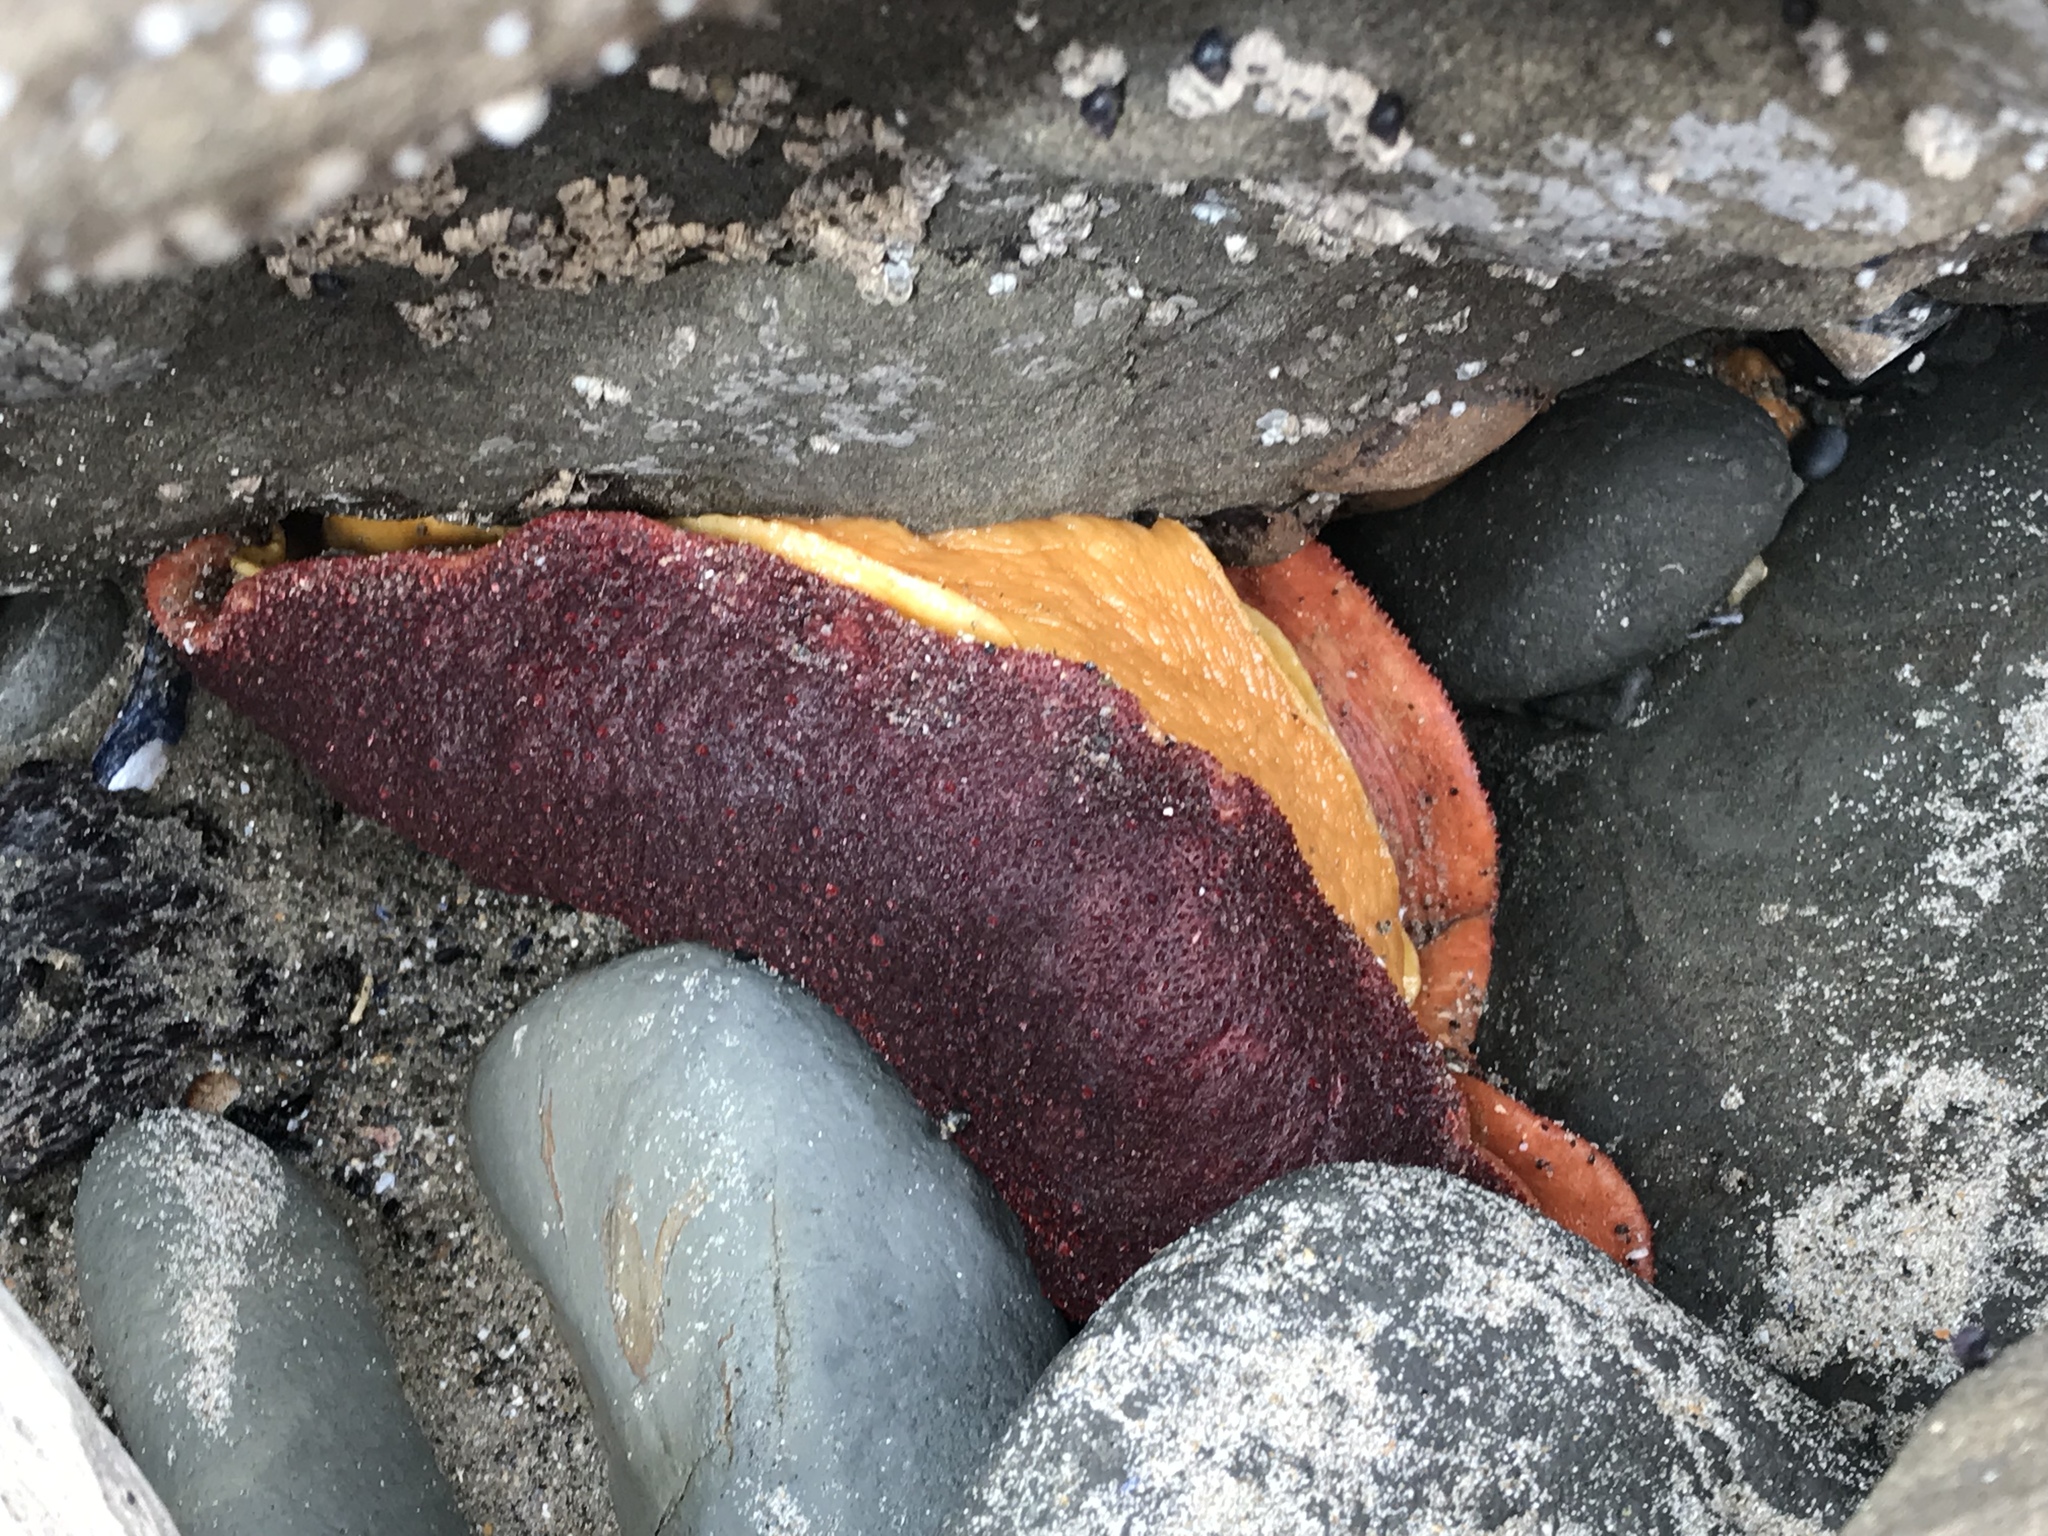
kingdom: Animalia
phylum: Mollusca
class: Polyplacophora
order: Chitonida
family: Acanthochitonidae
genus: Cryptochiton
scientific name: Cryptochiton stelleri
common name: Giant pacific chiton
